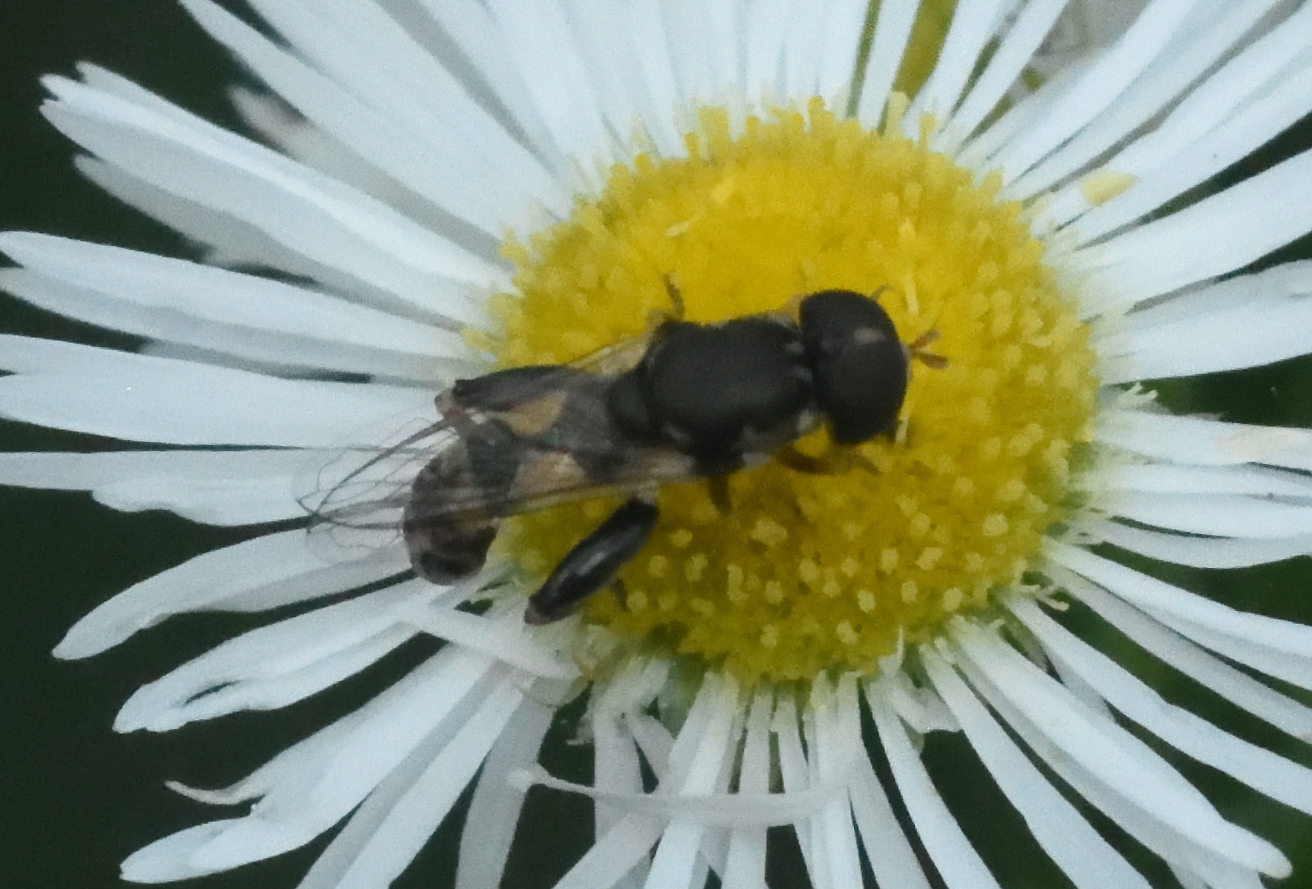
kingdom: Animalia
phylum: Arthropoda
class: Insecta
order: Diptera
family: Syrphidae
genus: Syritta
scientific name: Syritta pipiens
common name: Hover fly
